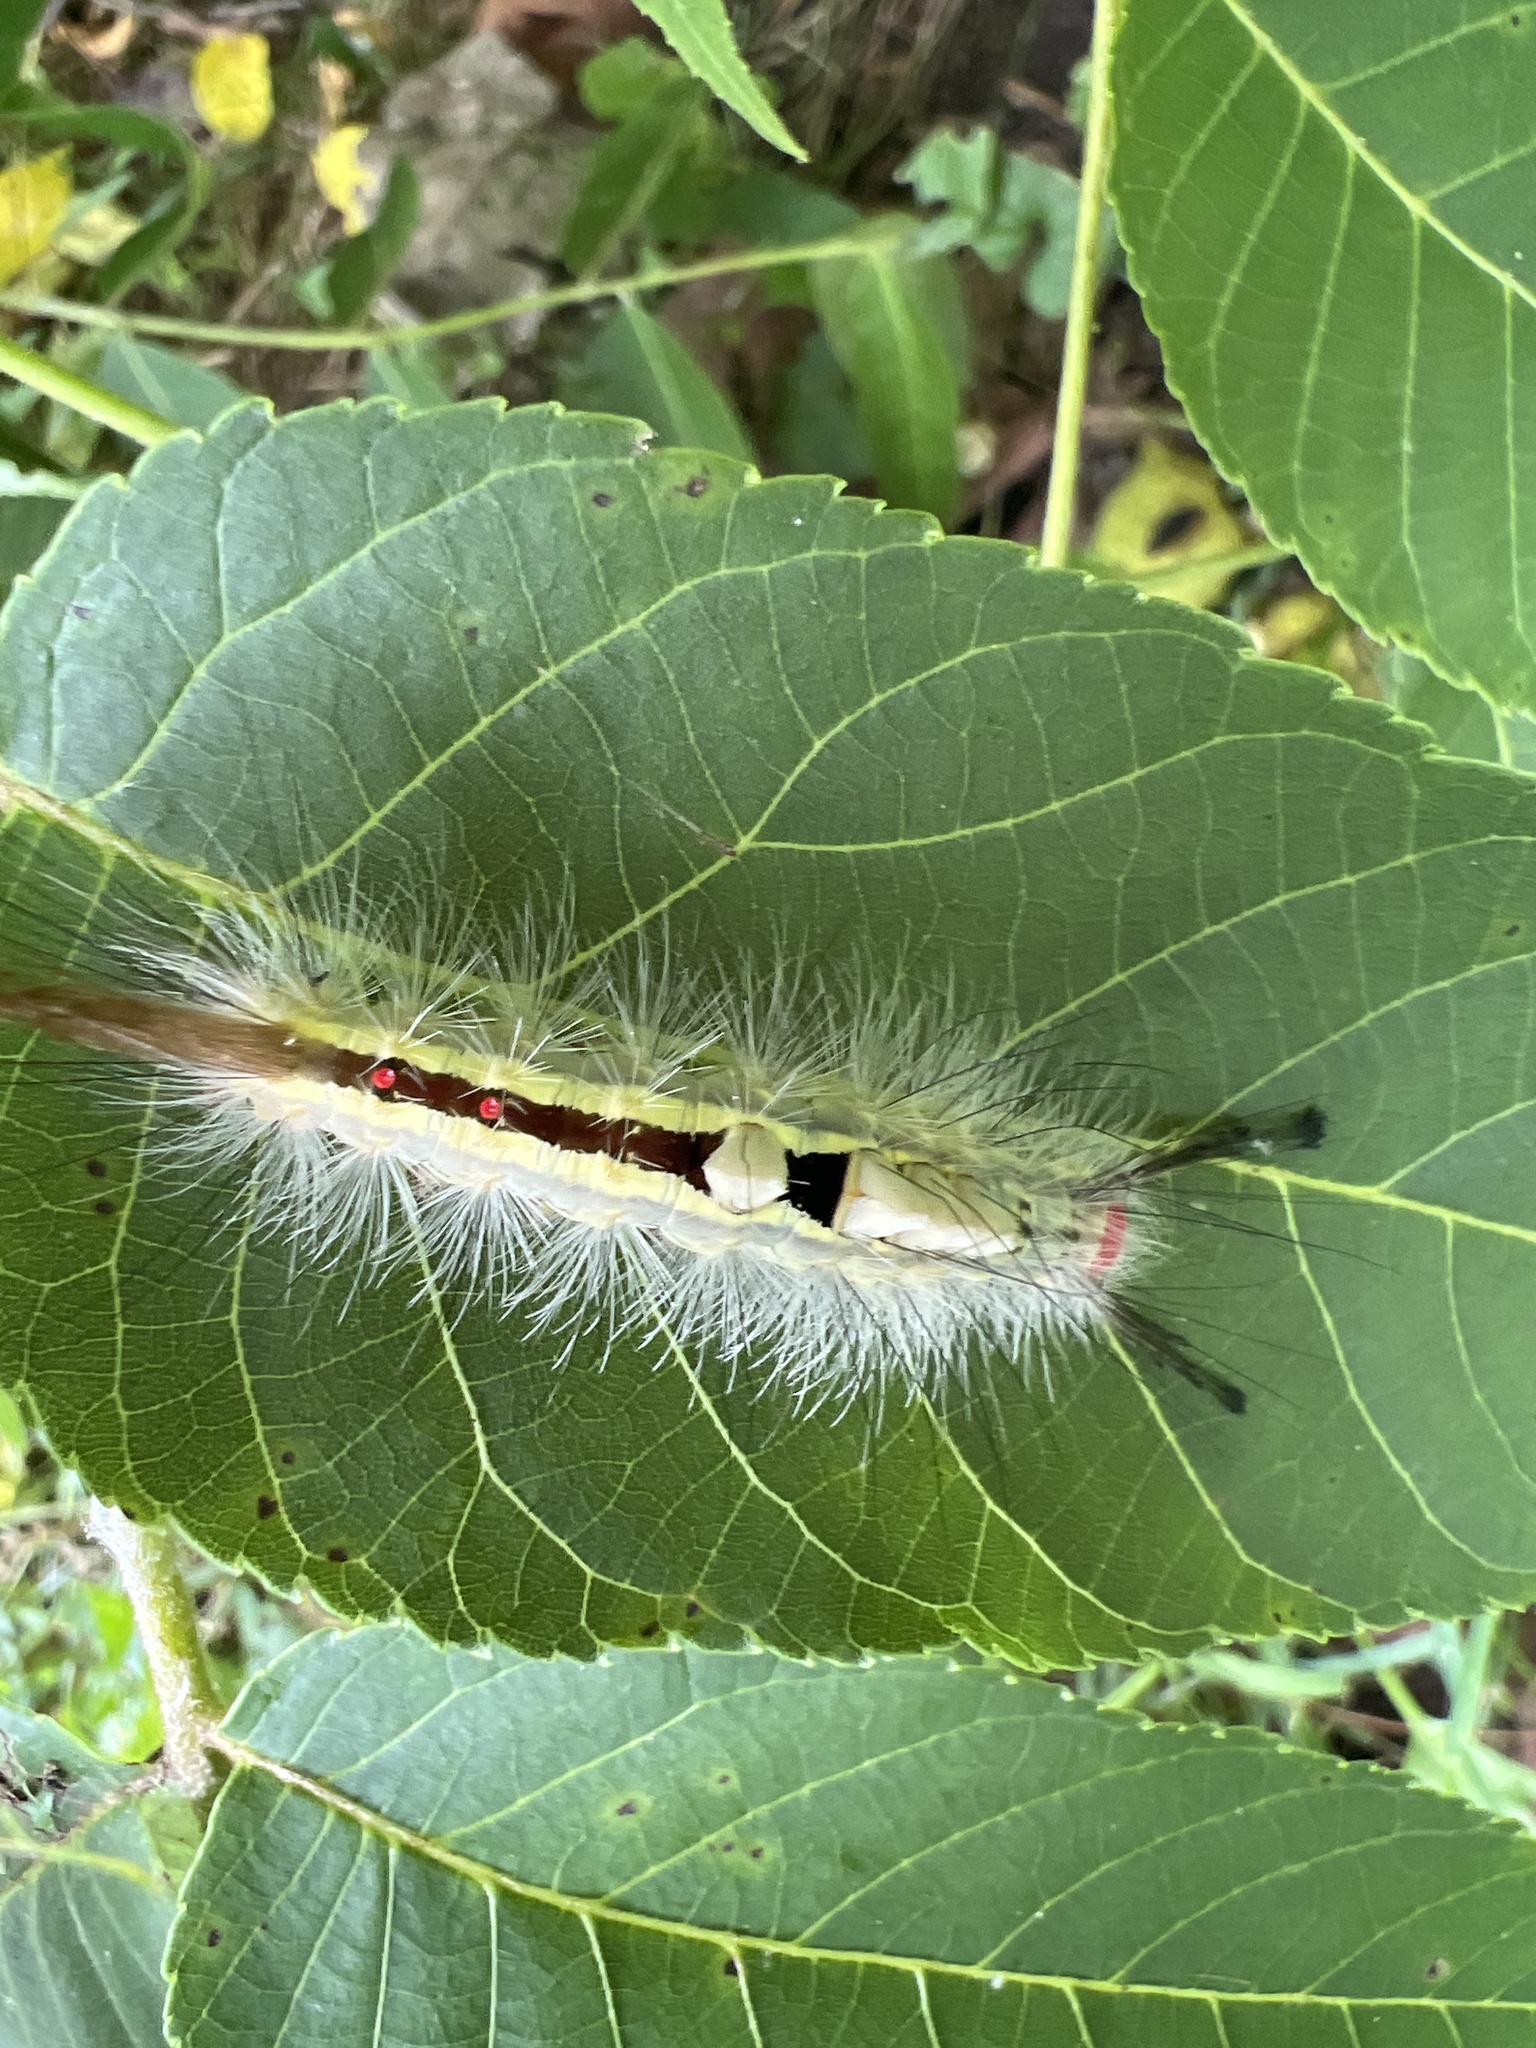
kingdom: Animalia
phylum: Arthropoda
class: Insecta
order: Lepidoptera
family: Erebidae
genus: Orgyia
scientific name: Orgyia leucostigma
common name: White-marked tussock moth
